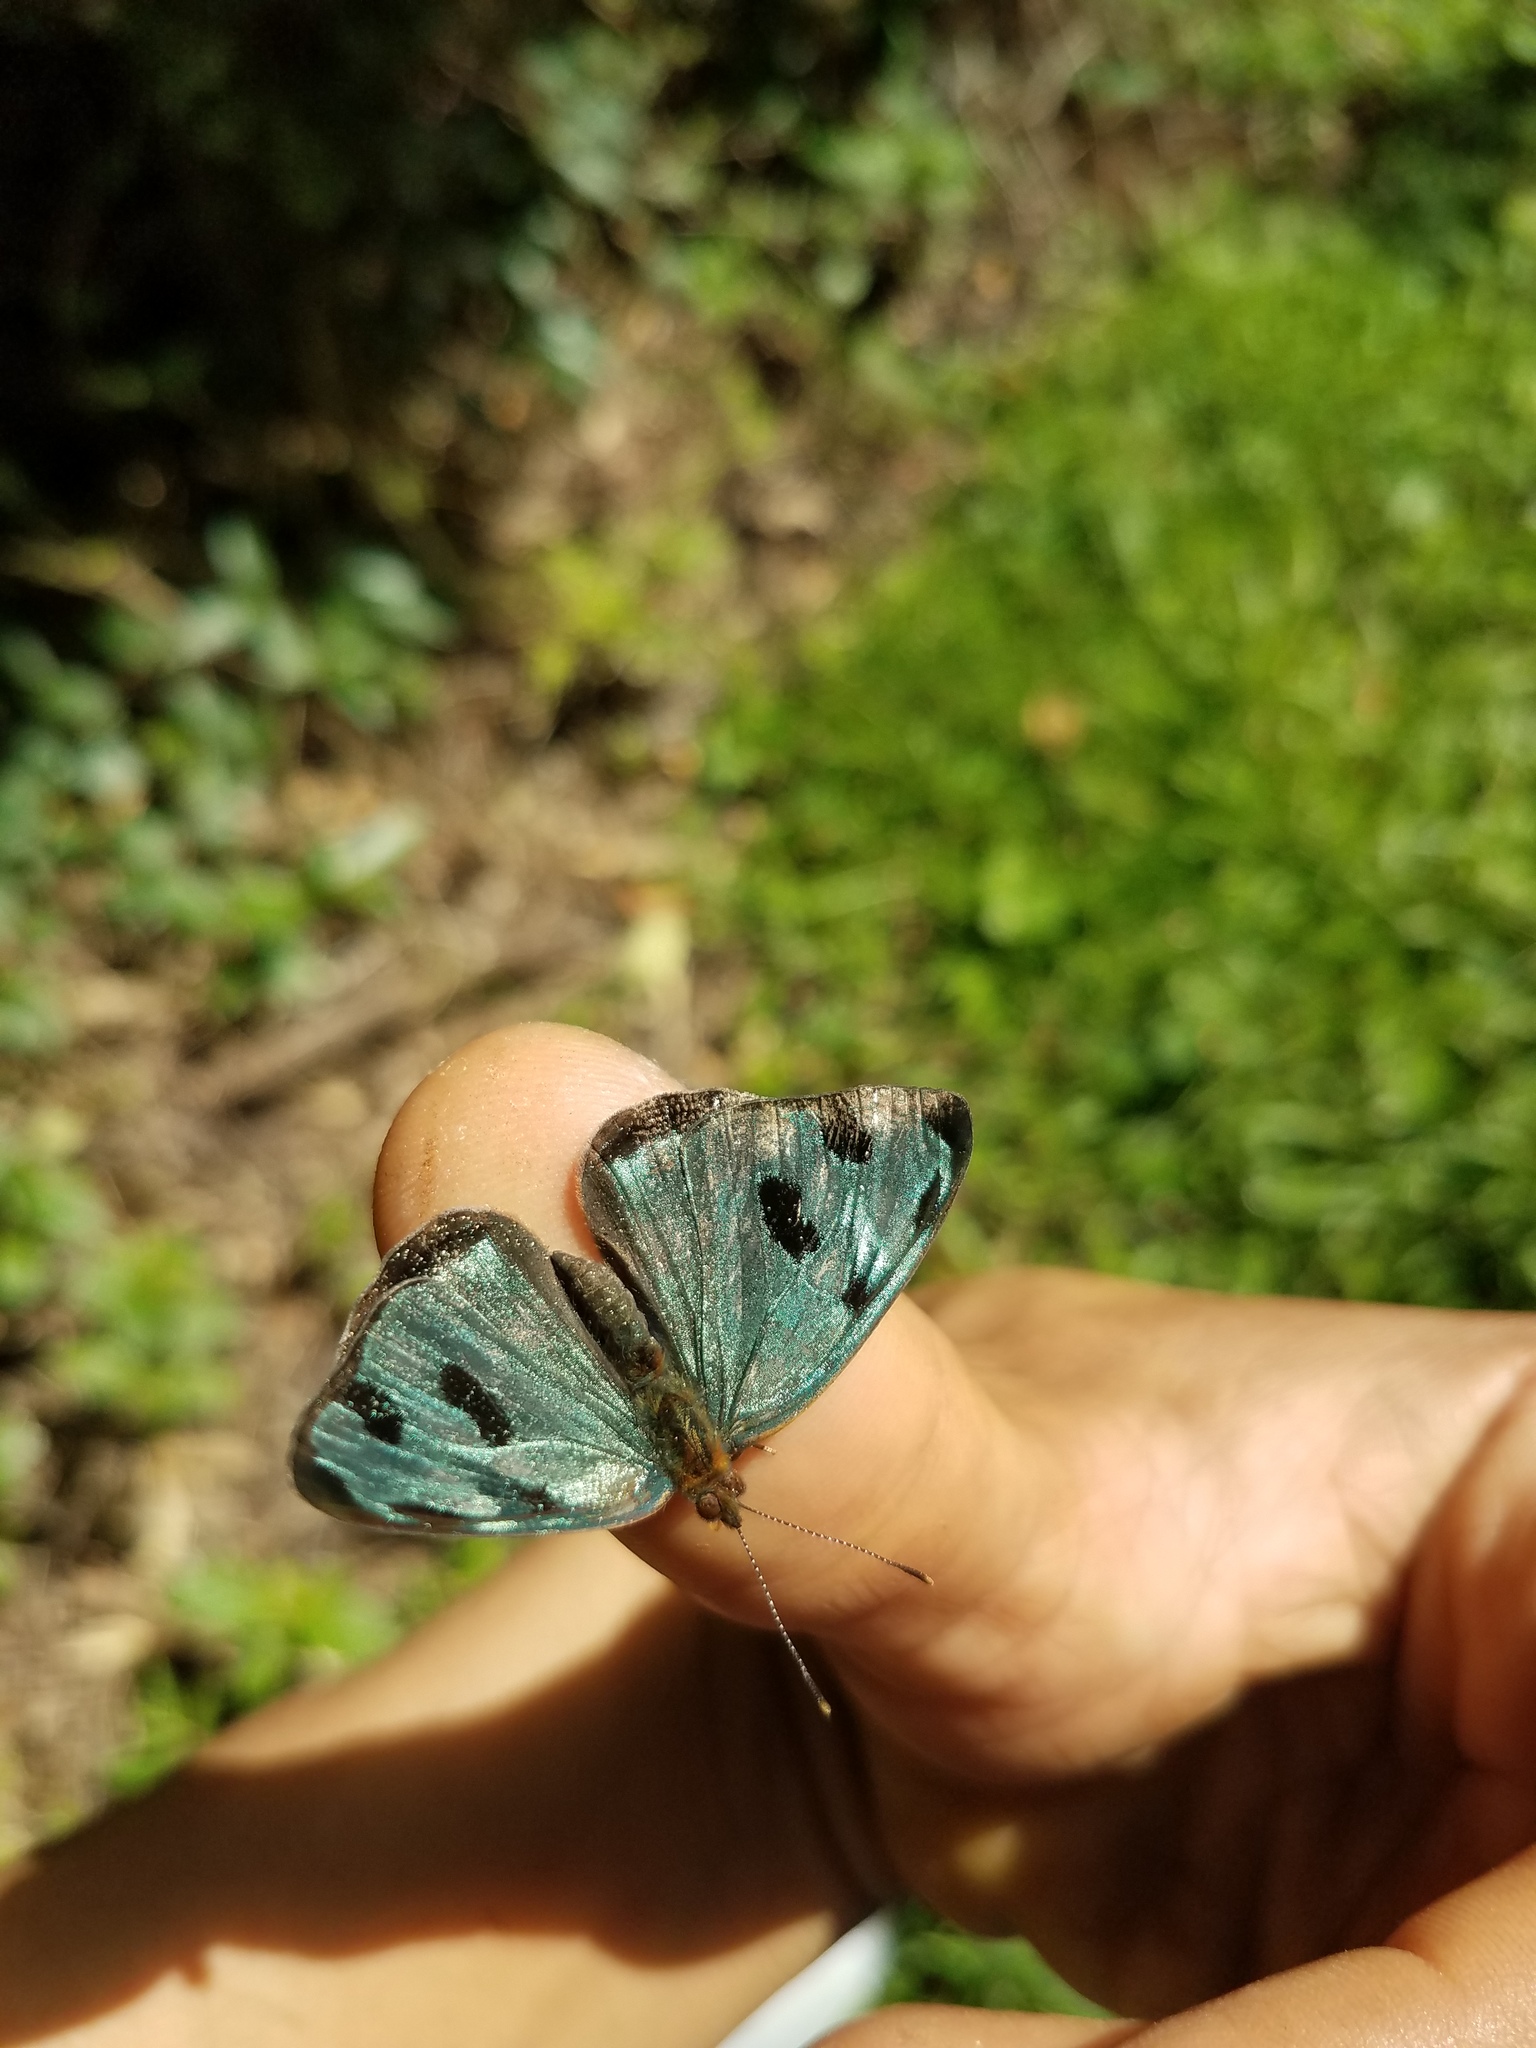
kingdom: Animalia
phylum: Arthropoda
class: Insecta
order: Lepidoptera
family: Nymphalidae
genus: Dynamine
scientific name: Dynamine mylitta
